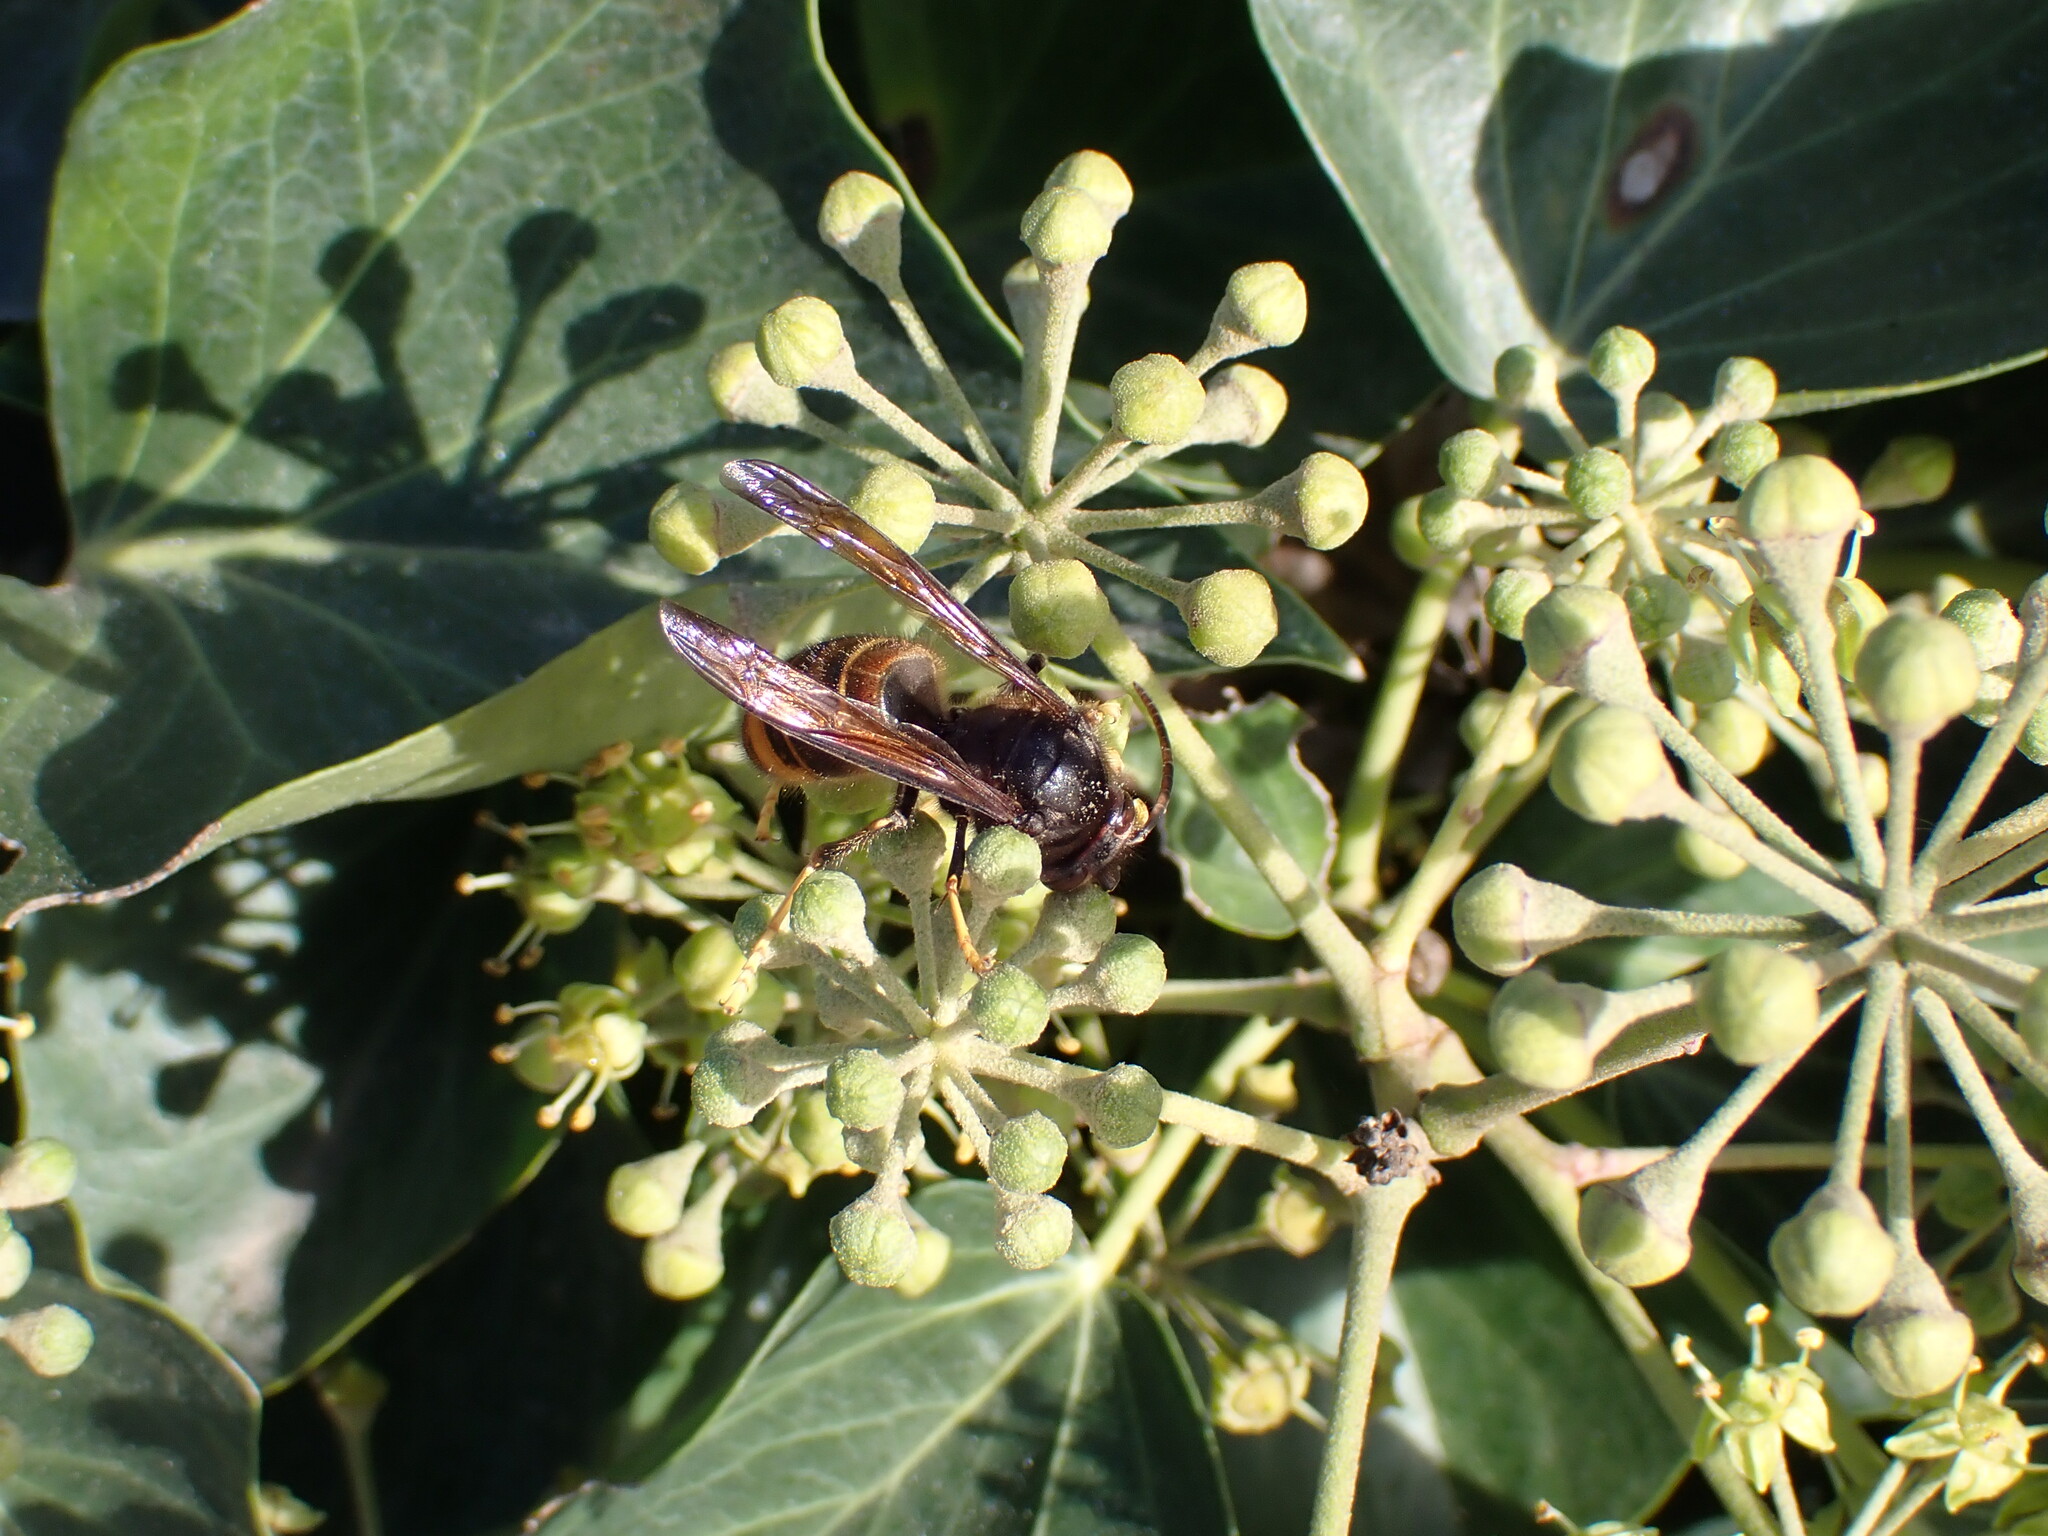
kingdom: Animalia
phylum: Arthropoda
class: Insecta
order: Hymenoptera
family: Vespidae
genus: Vespa
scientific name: Vespa velutina
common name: Asian hornet
